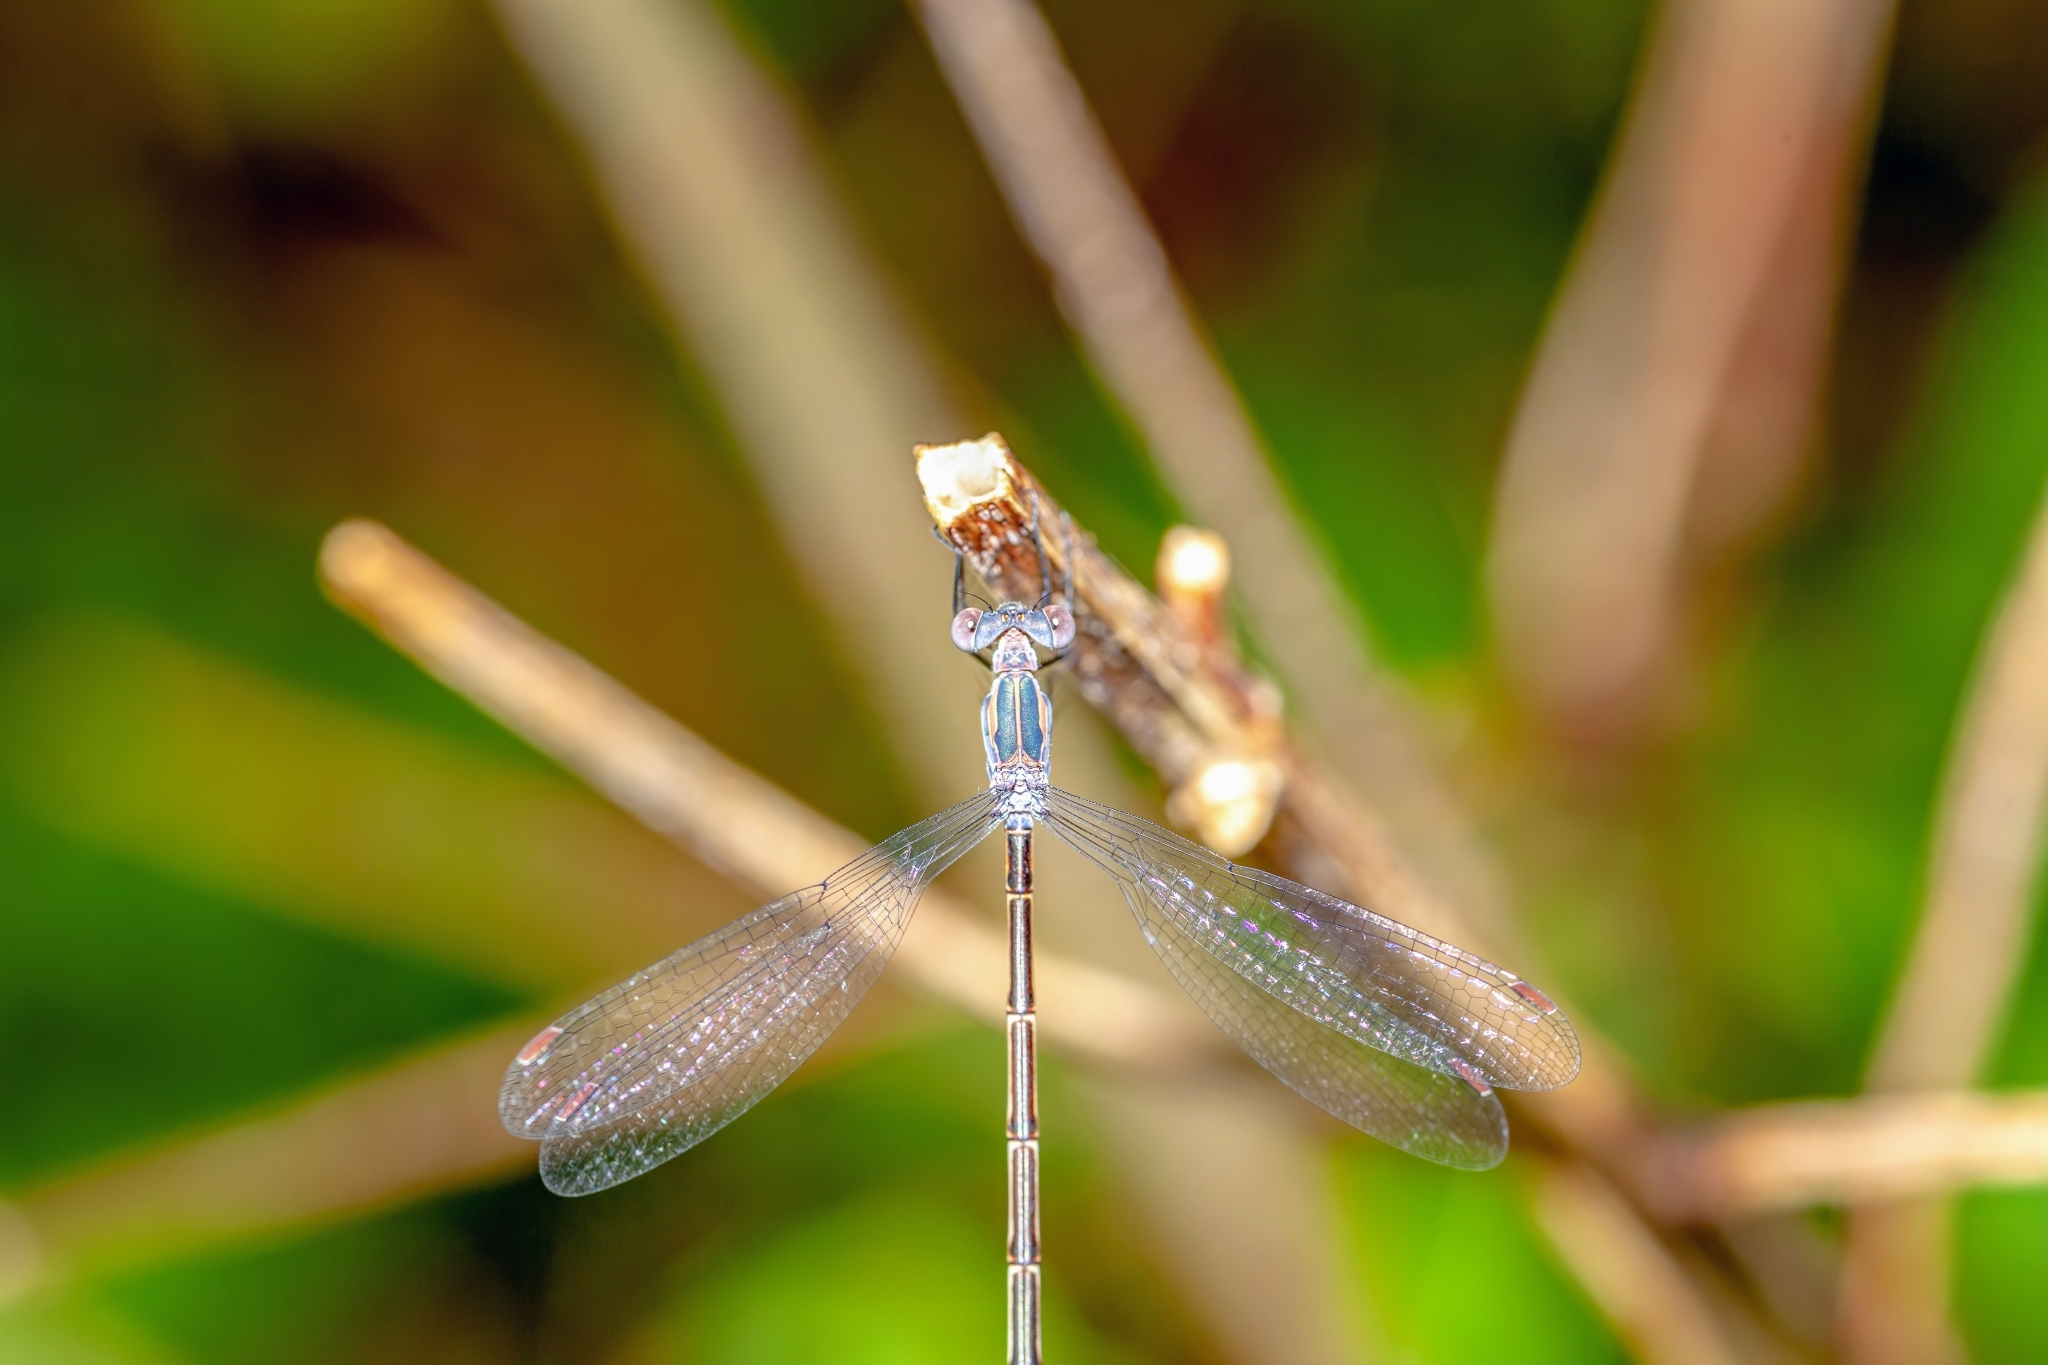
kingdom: Animalia
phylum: Arthropoda
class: Insecta
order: Odonata
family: Lestidae
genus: Lestes
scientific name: Lestes vidua
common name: Carolina spreadwing
